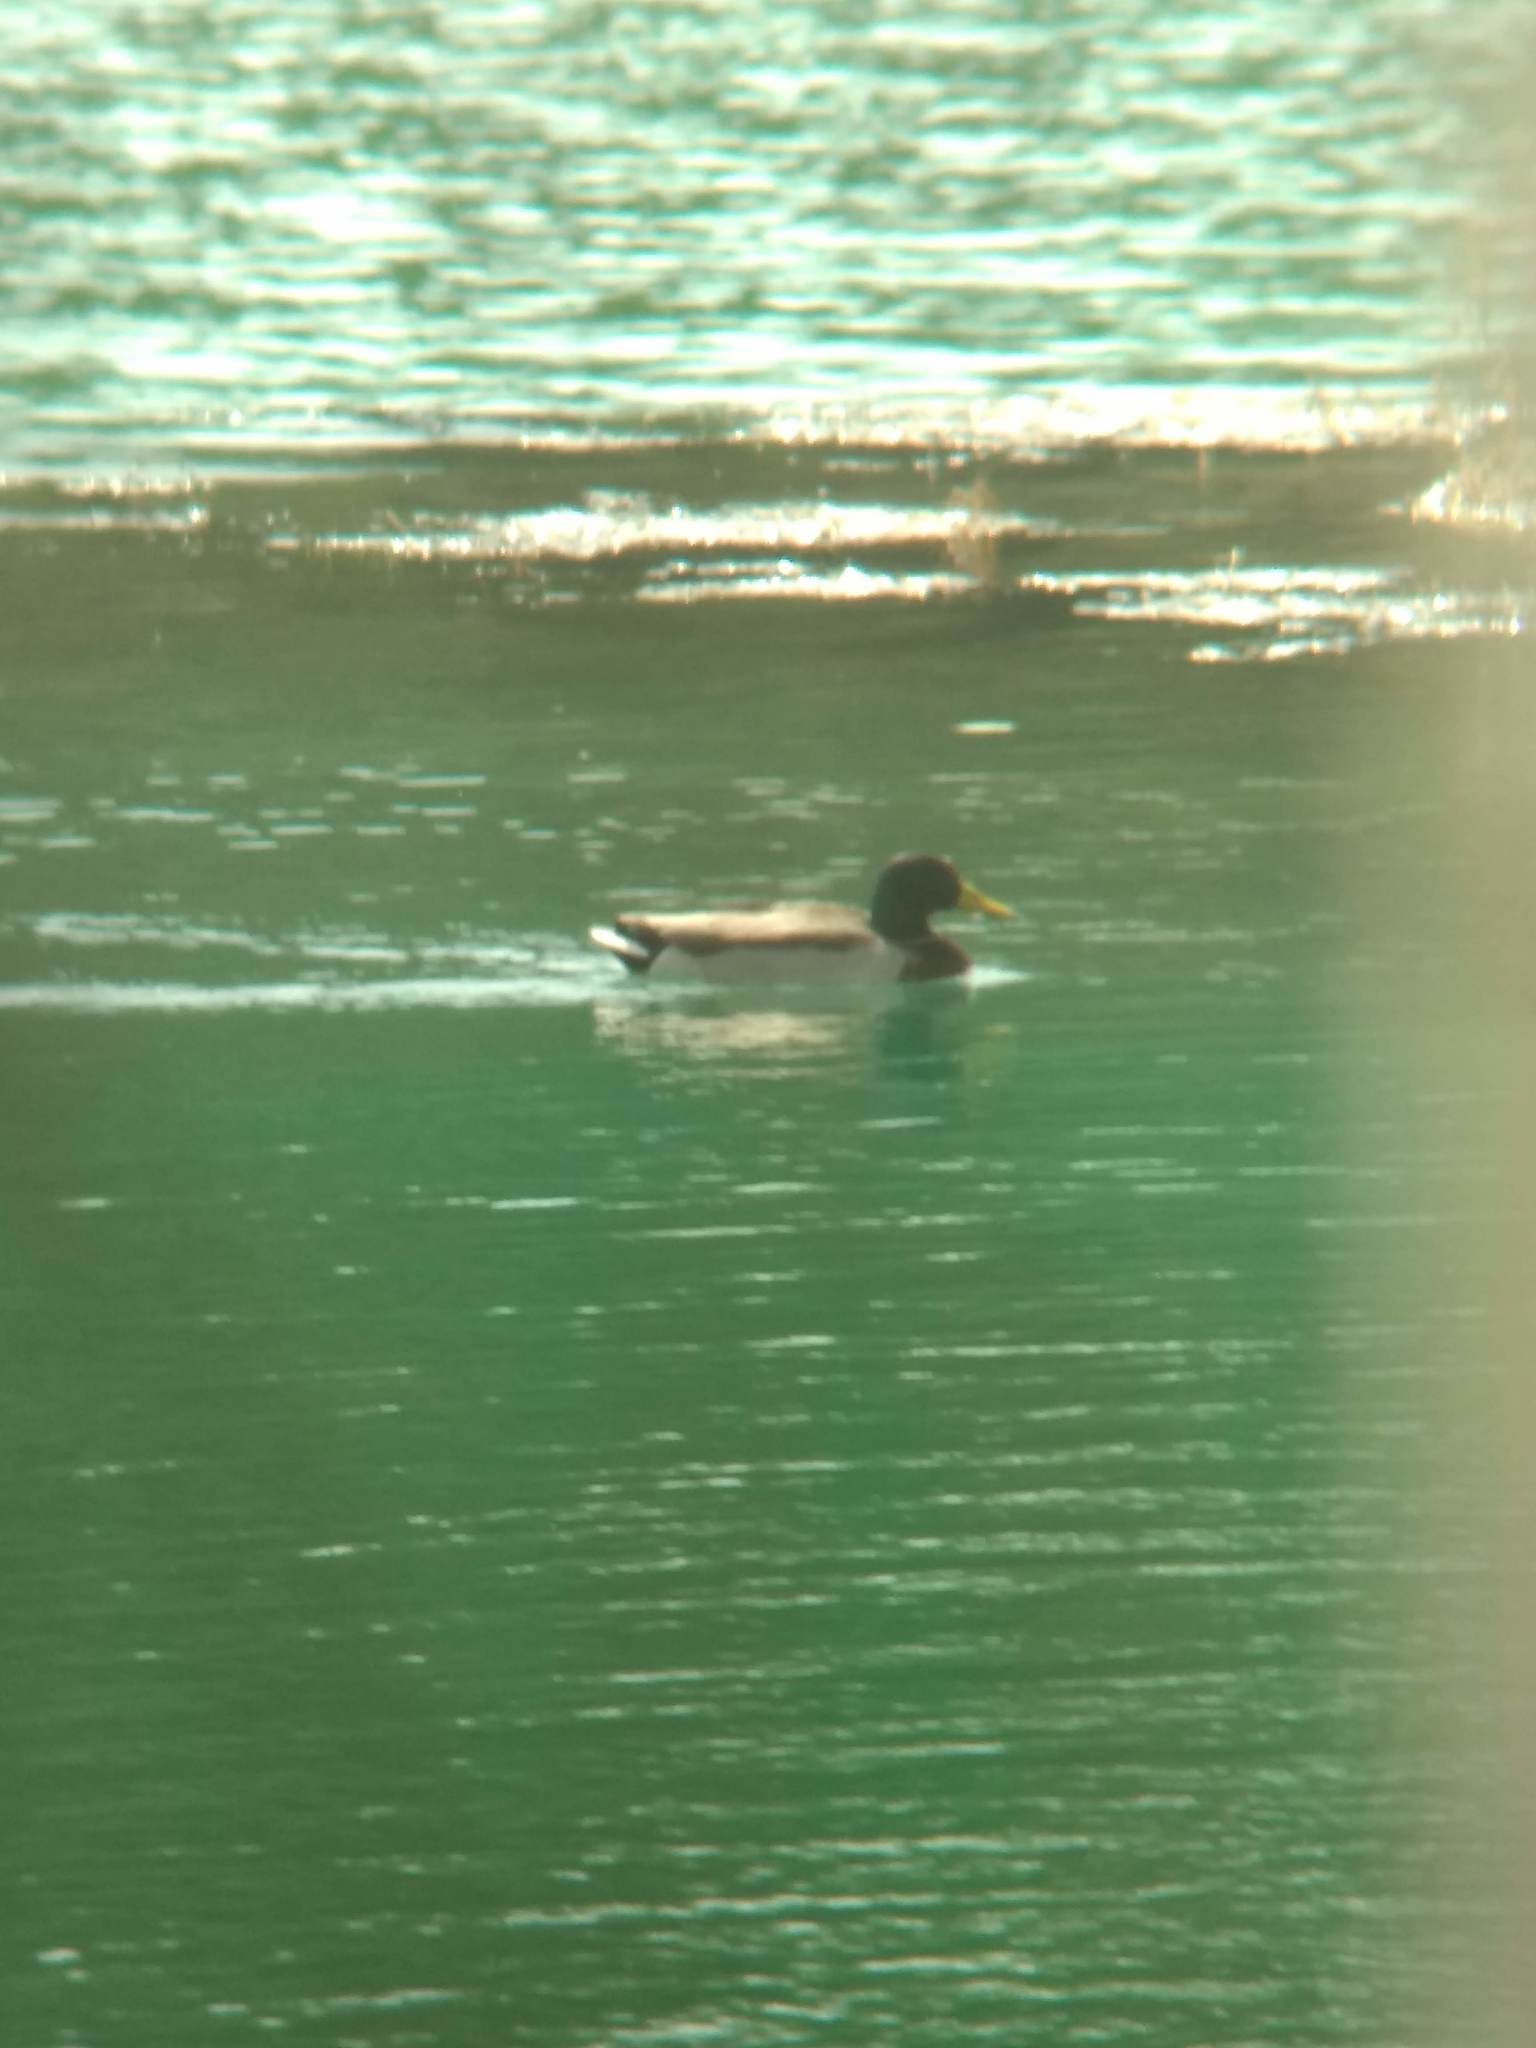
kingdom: Animalia
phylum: Chordata
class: Aves
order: Anseriformes
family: Anatidae
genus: Anas
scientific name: Anas platyrhynchos
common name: Mallard
